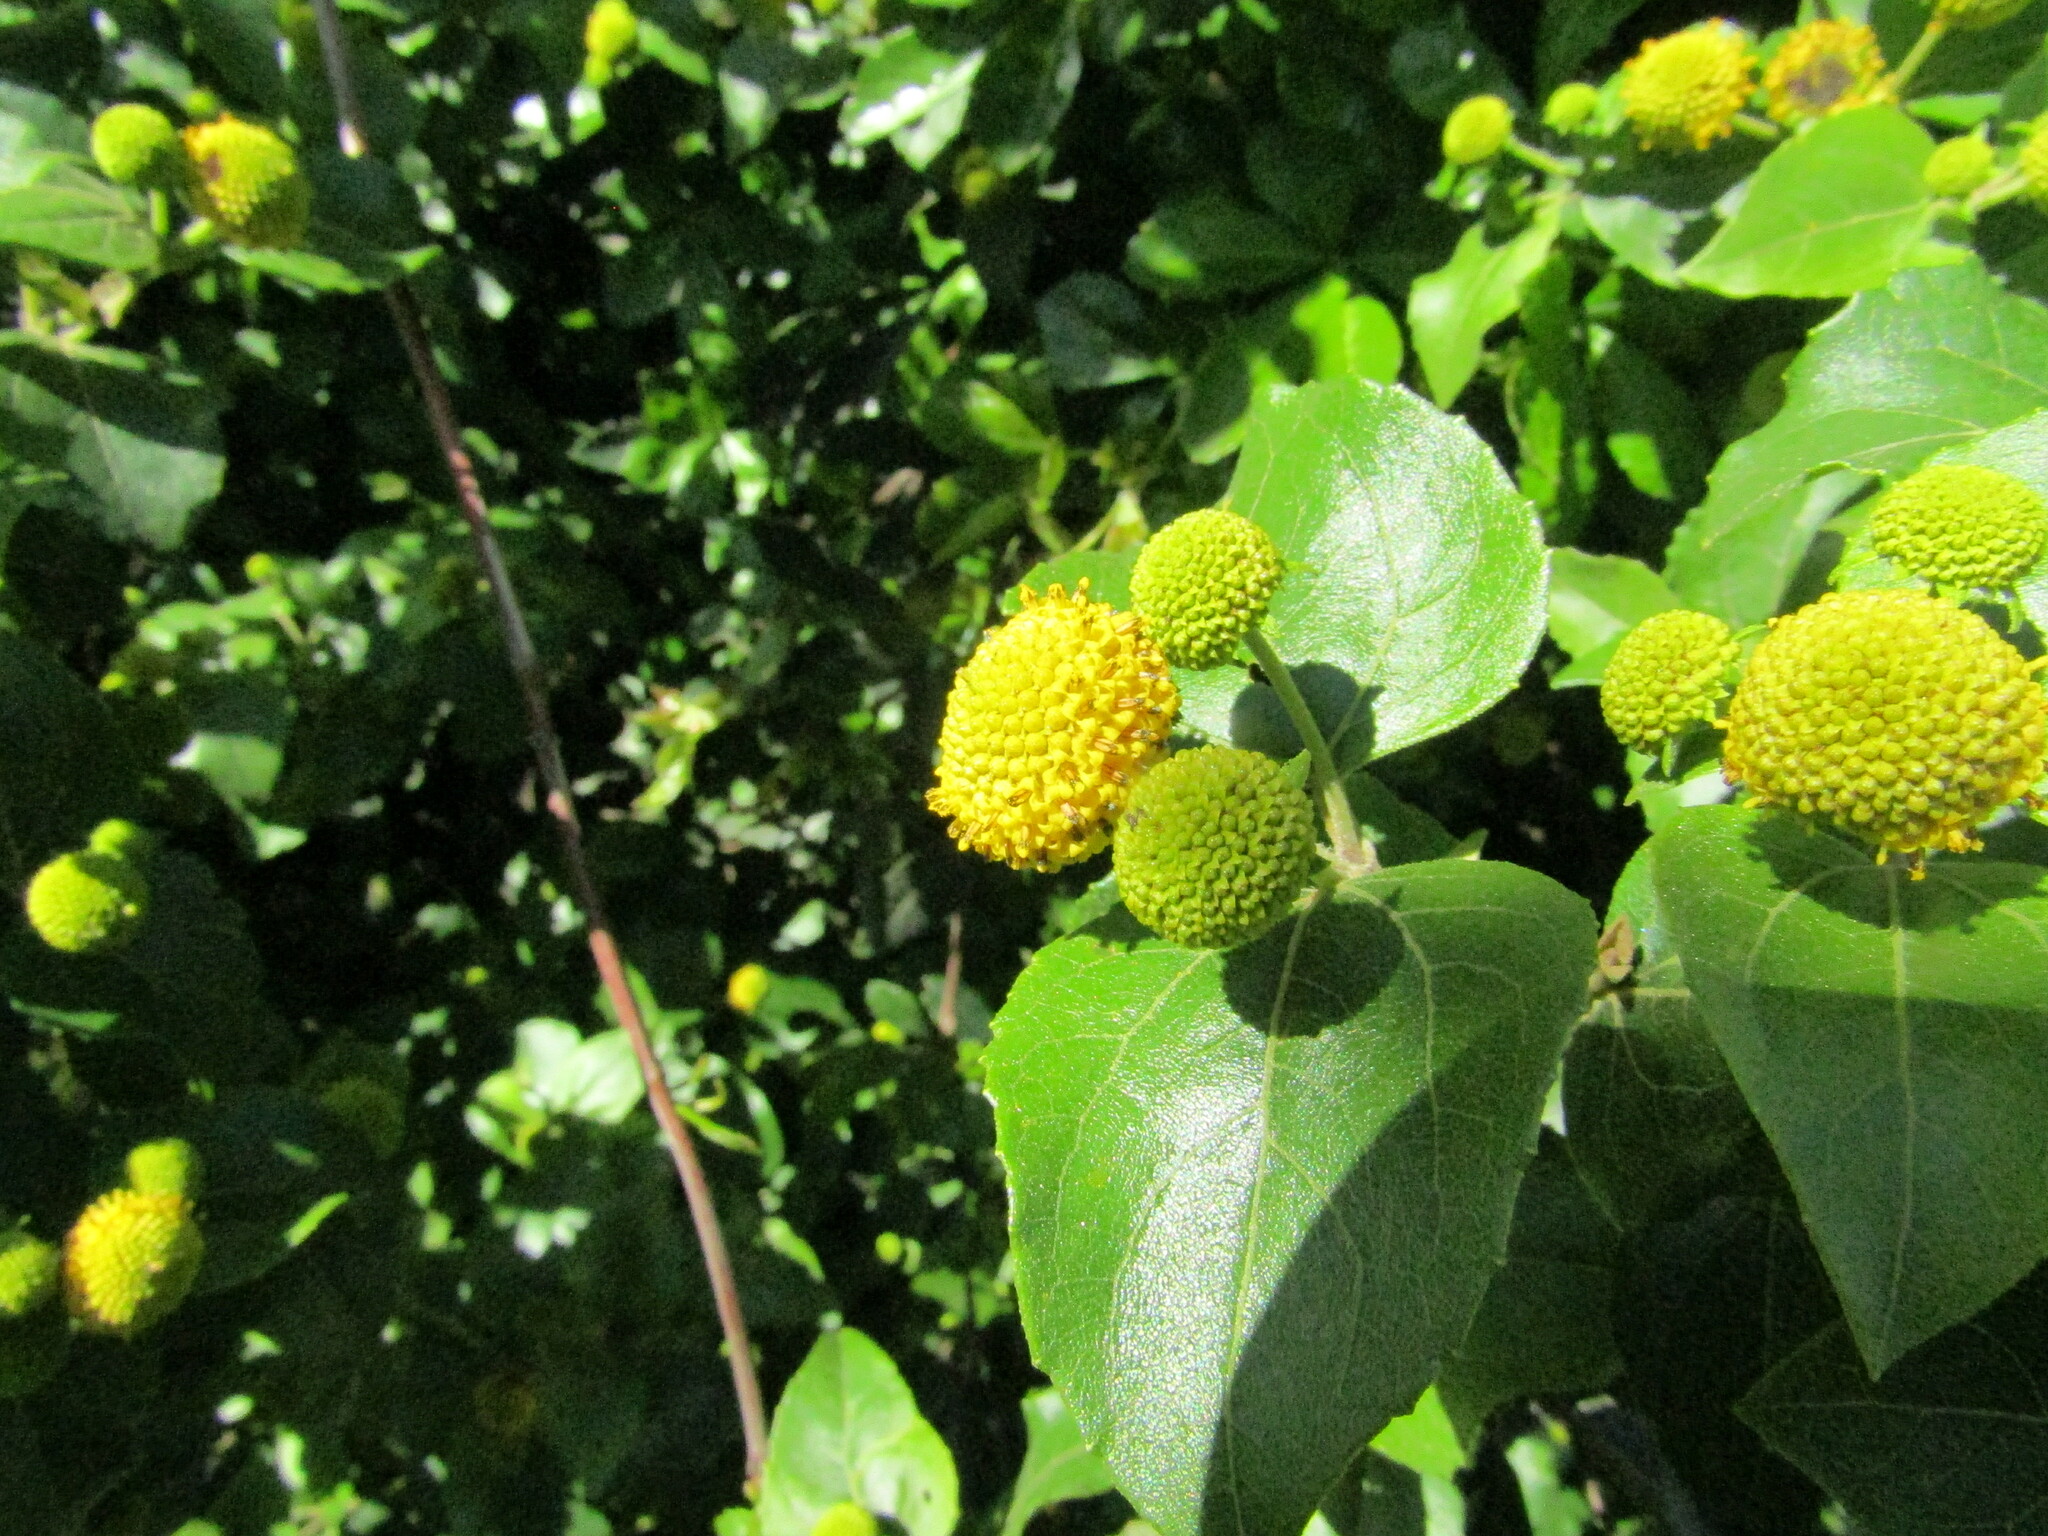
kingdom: Plantae
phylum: Tracheophyta
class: Magnoliopsida
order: Asterales
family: Asteraceae
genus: Podanthus
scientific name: Podanthus ovatifolius
